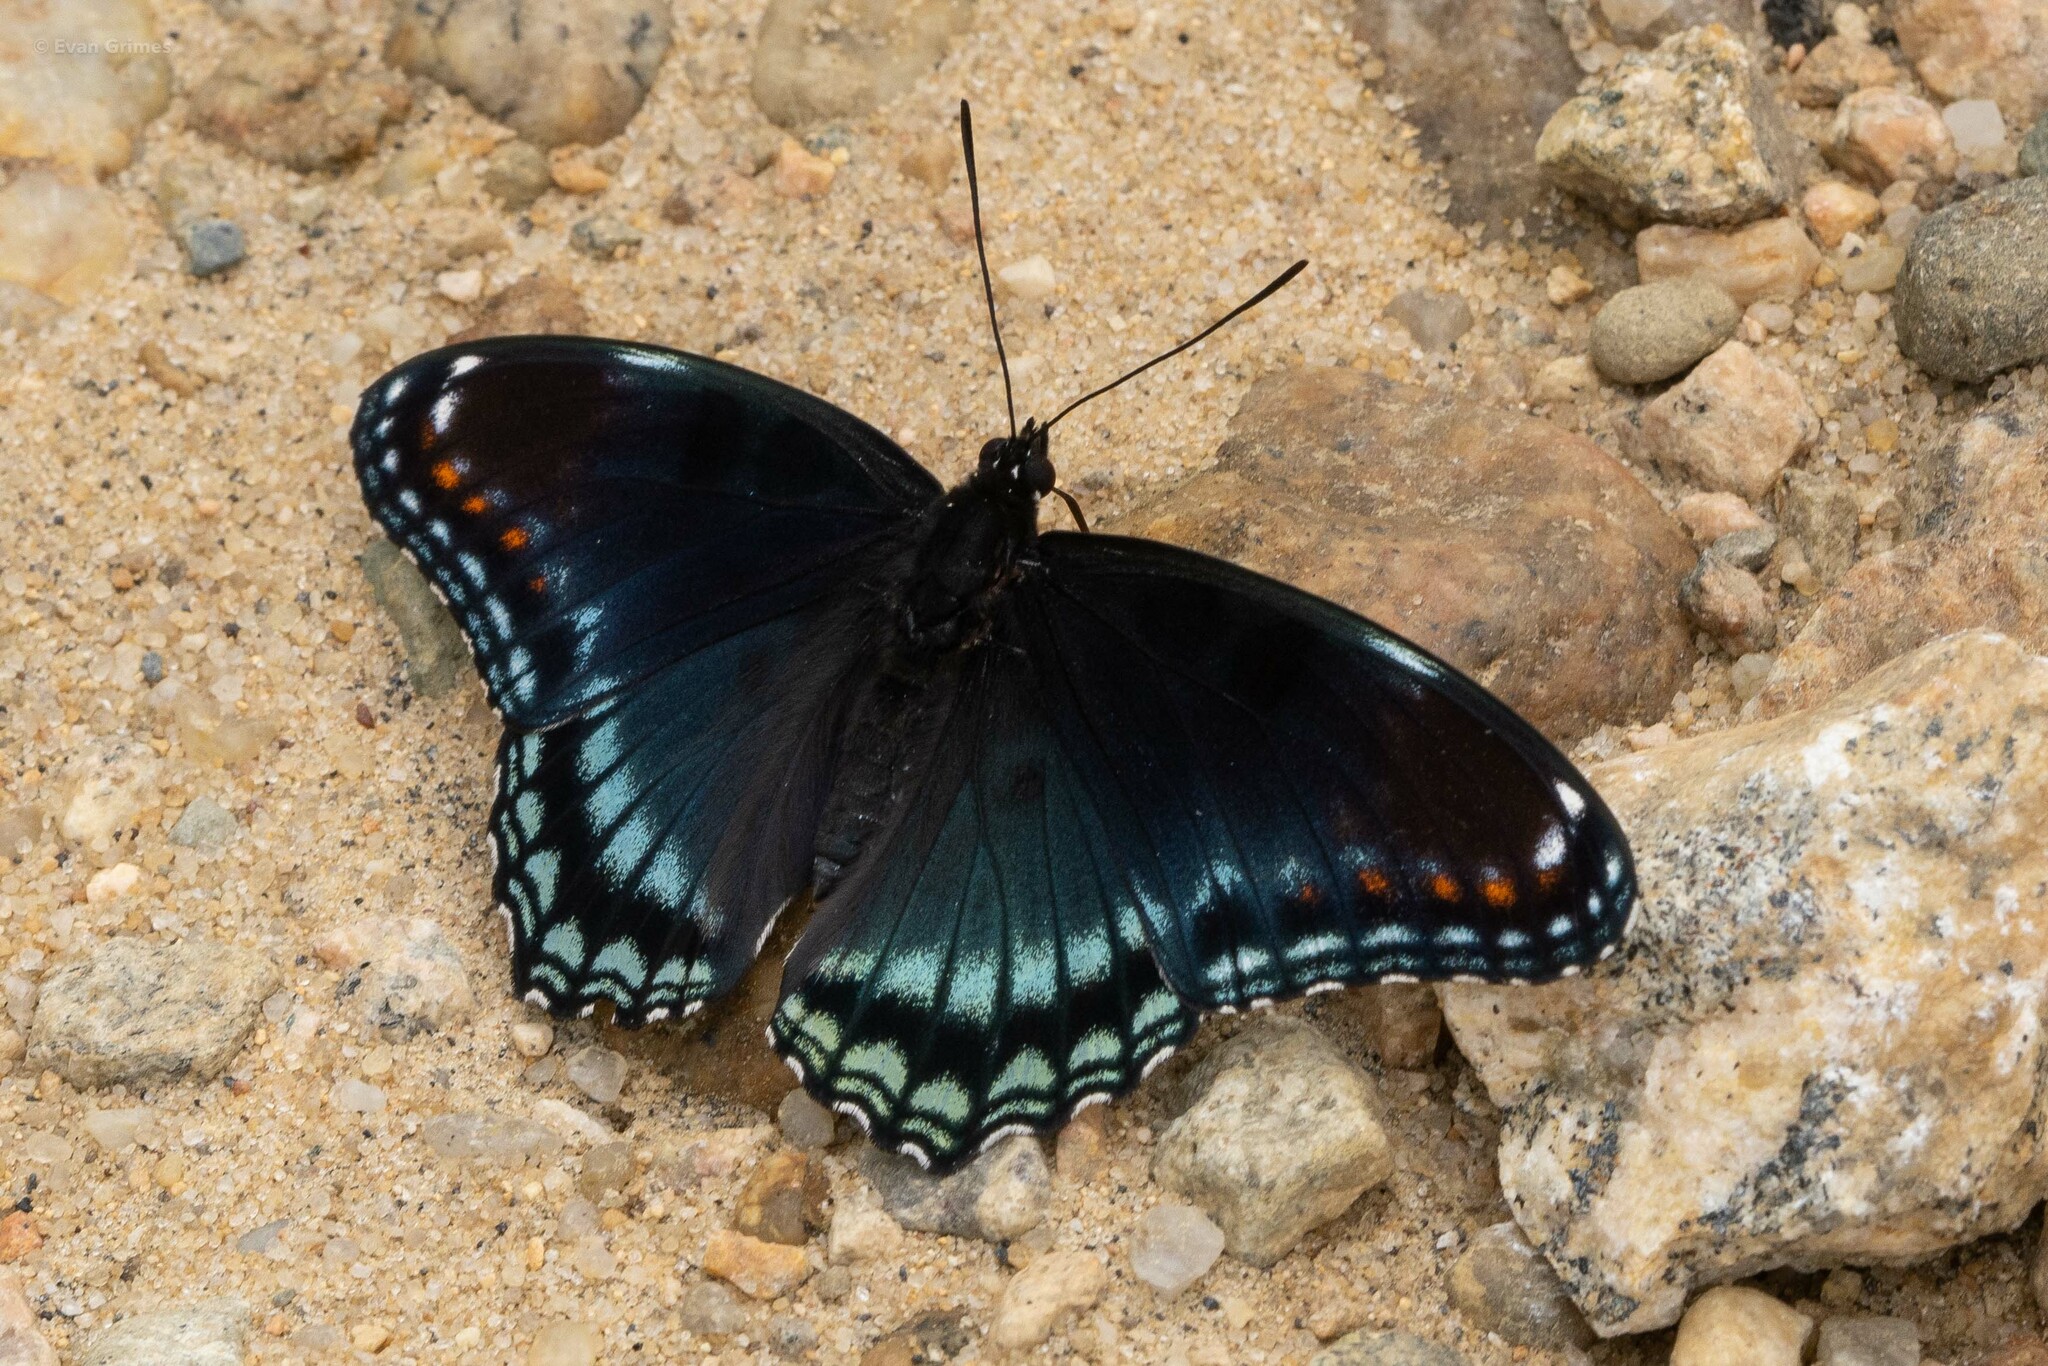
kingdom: Animalia
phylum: Arthropoda
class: Insecta
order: Lepidoptera
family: Nymphalidae
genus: Limenitis
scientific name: Limenitis arthemis
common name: Red-spotted admiral
